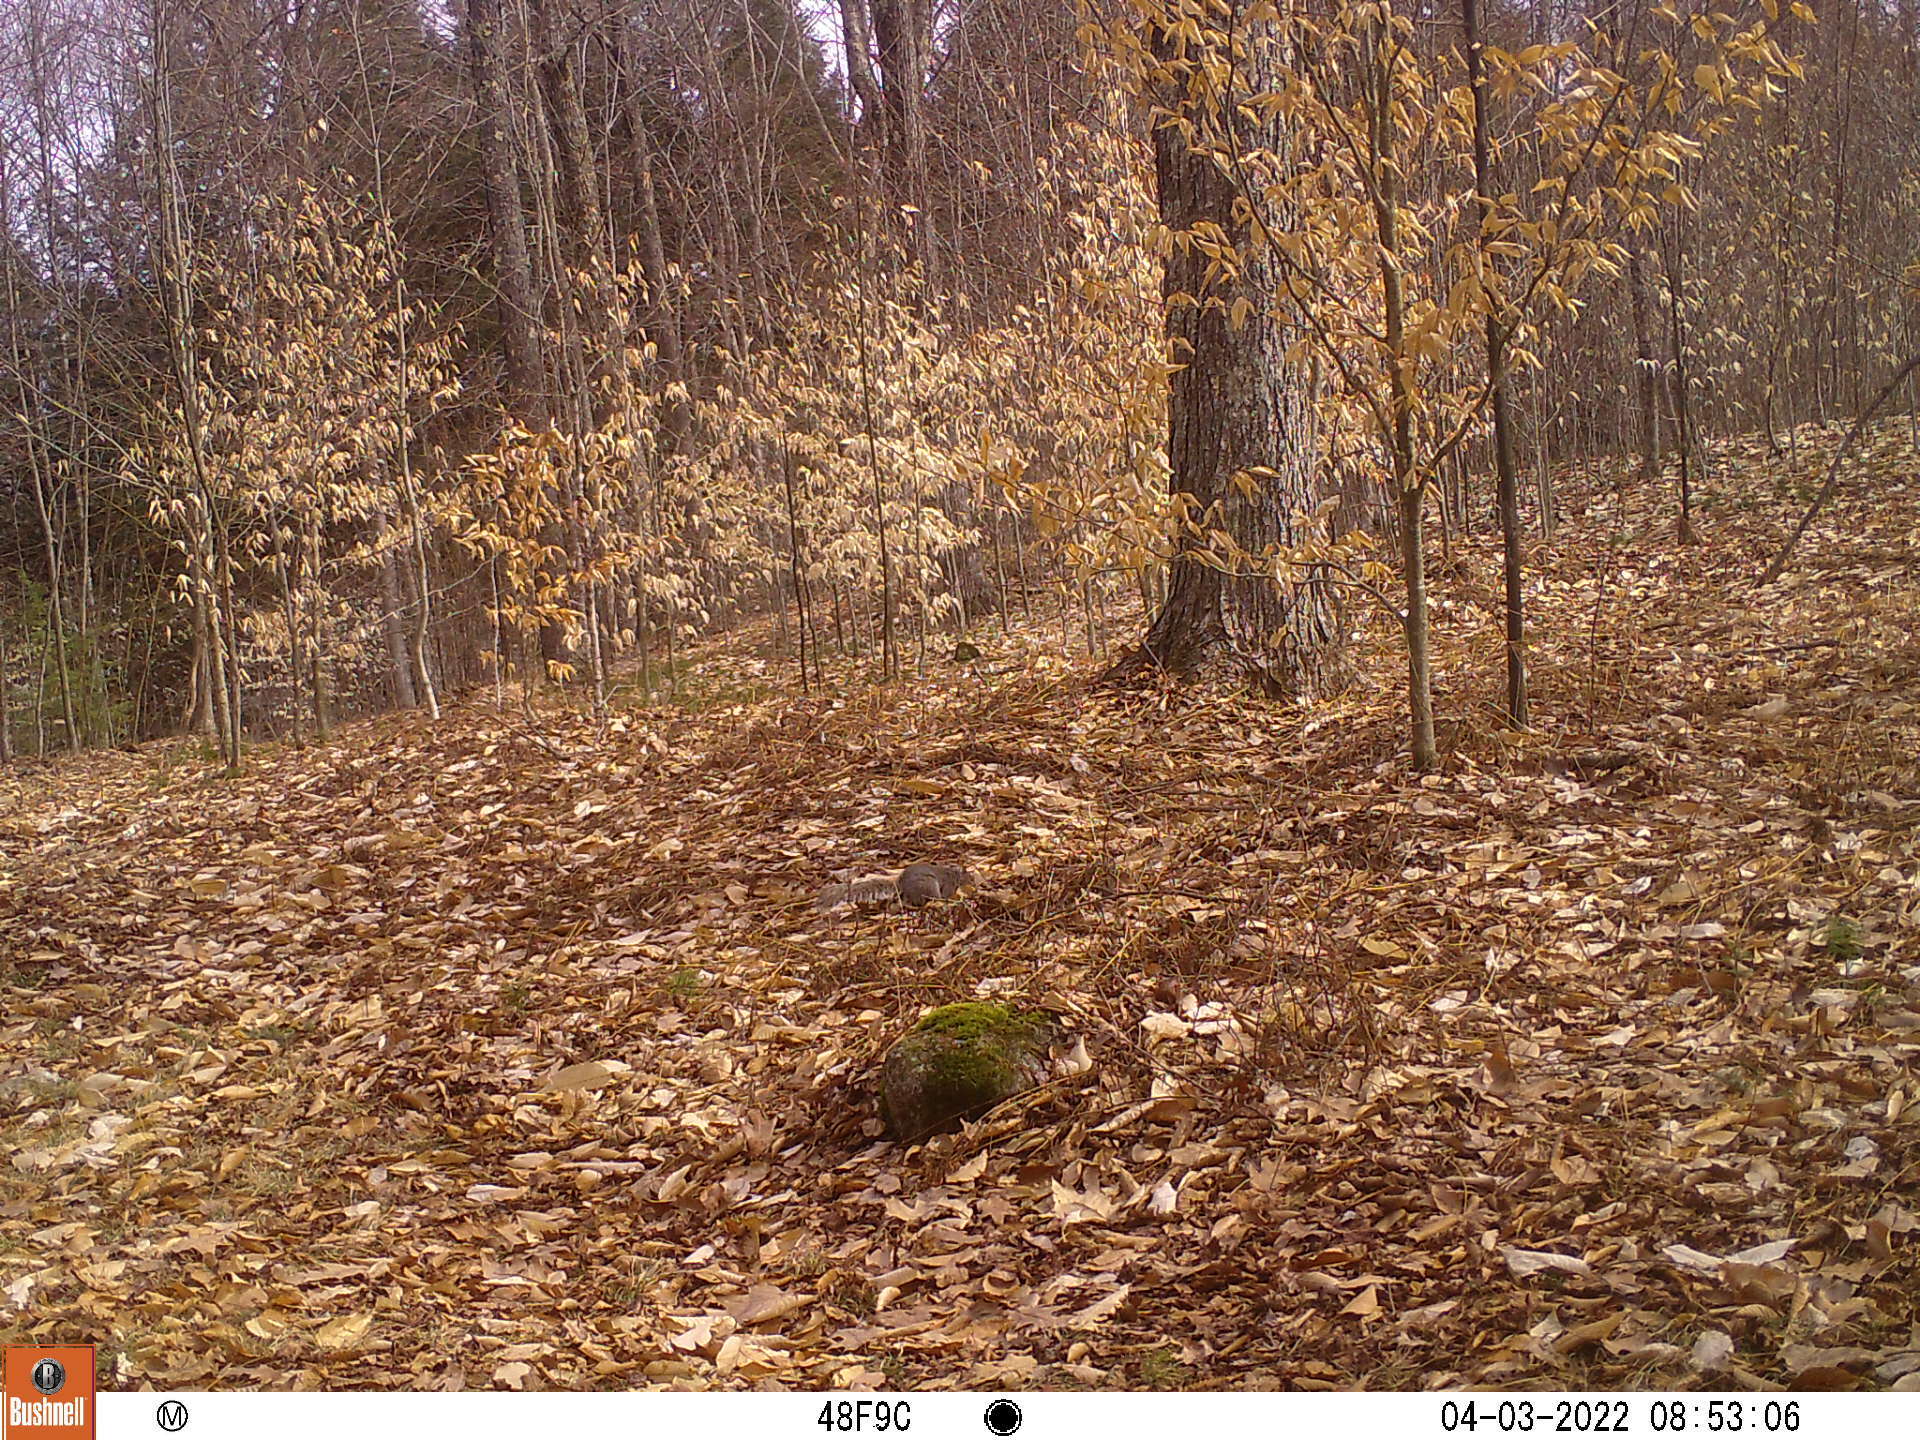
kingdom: Animalia
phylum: Chordata
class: Mammalia
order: Rodentia
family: Sciuridae
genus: Sciurus
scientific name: Sciurus carolinensis
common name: Eastern gray squirrel
